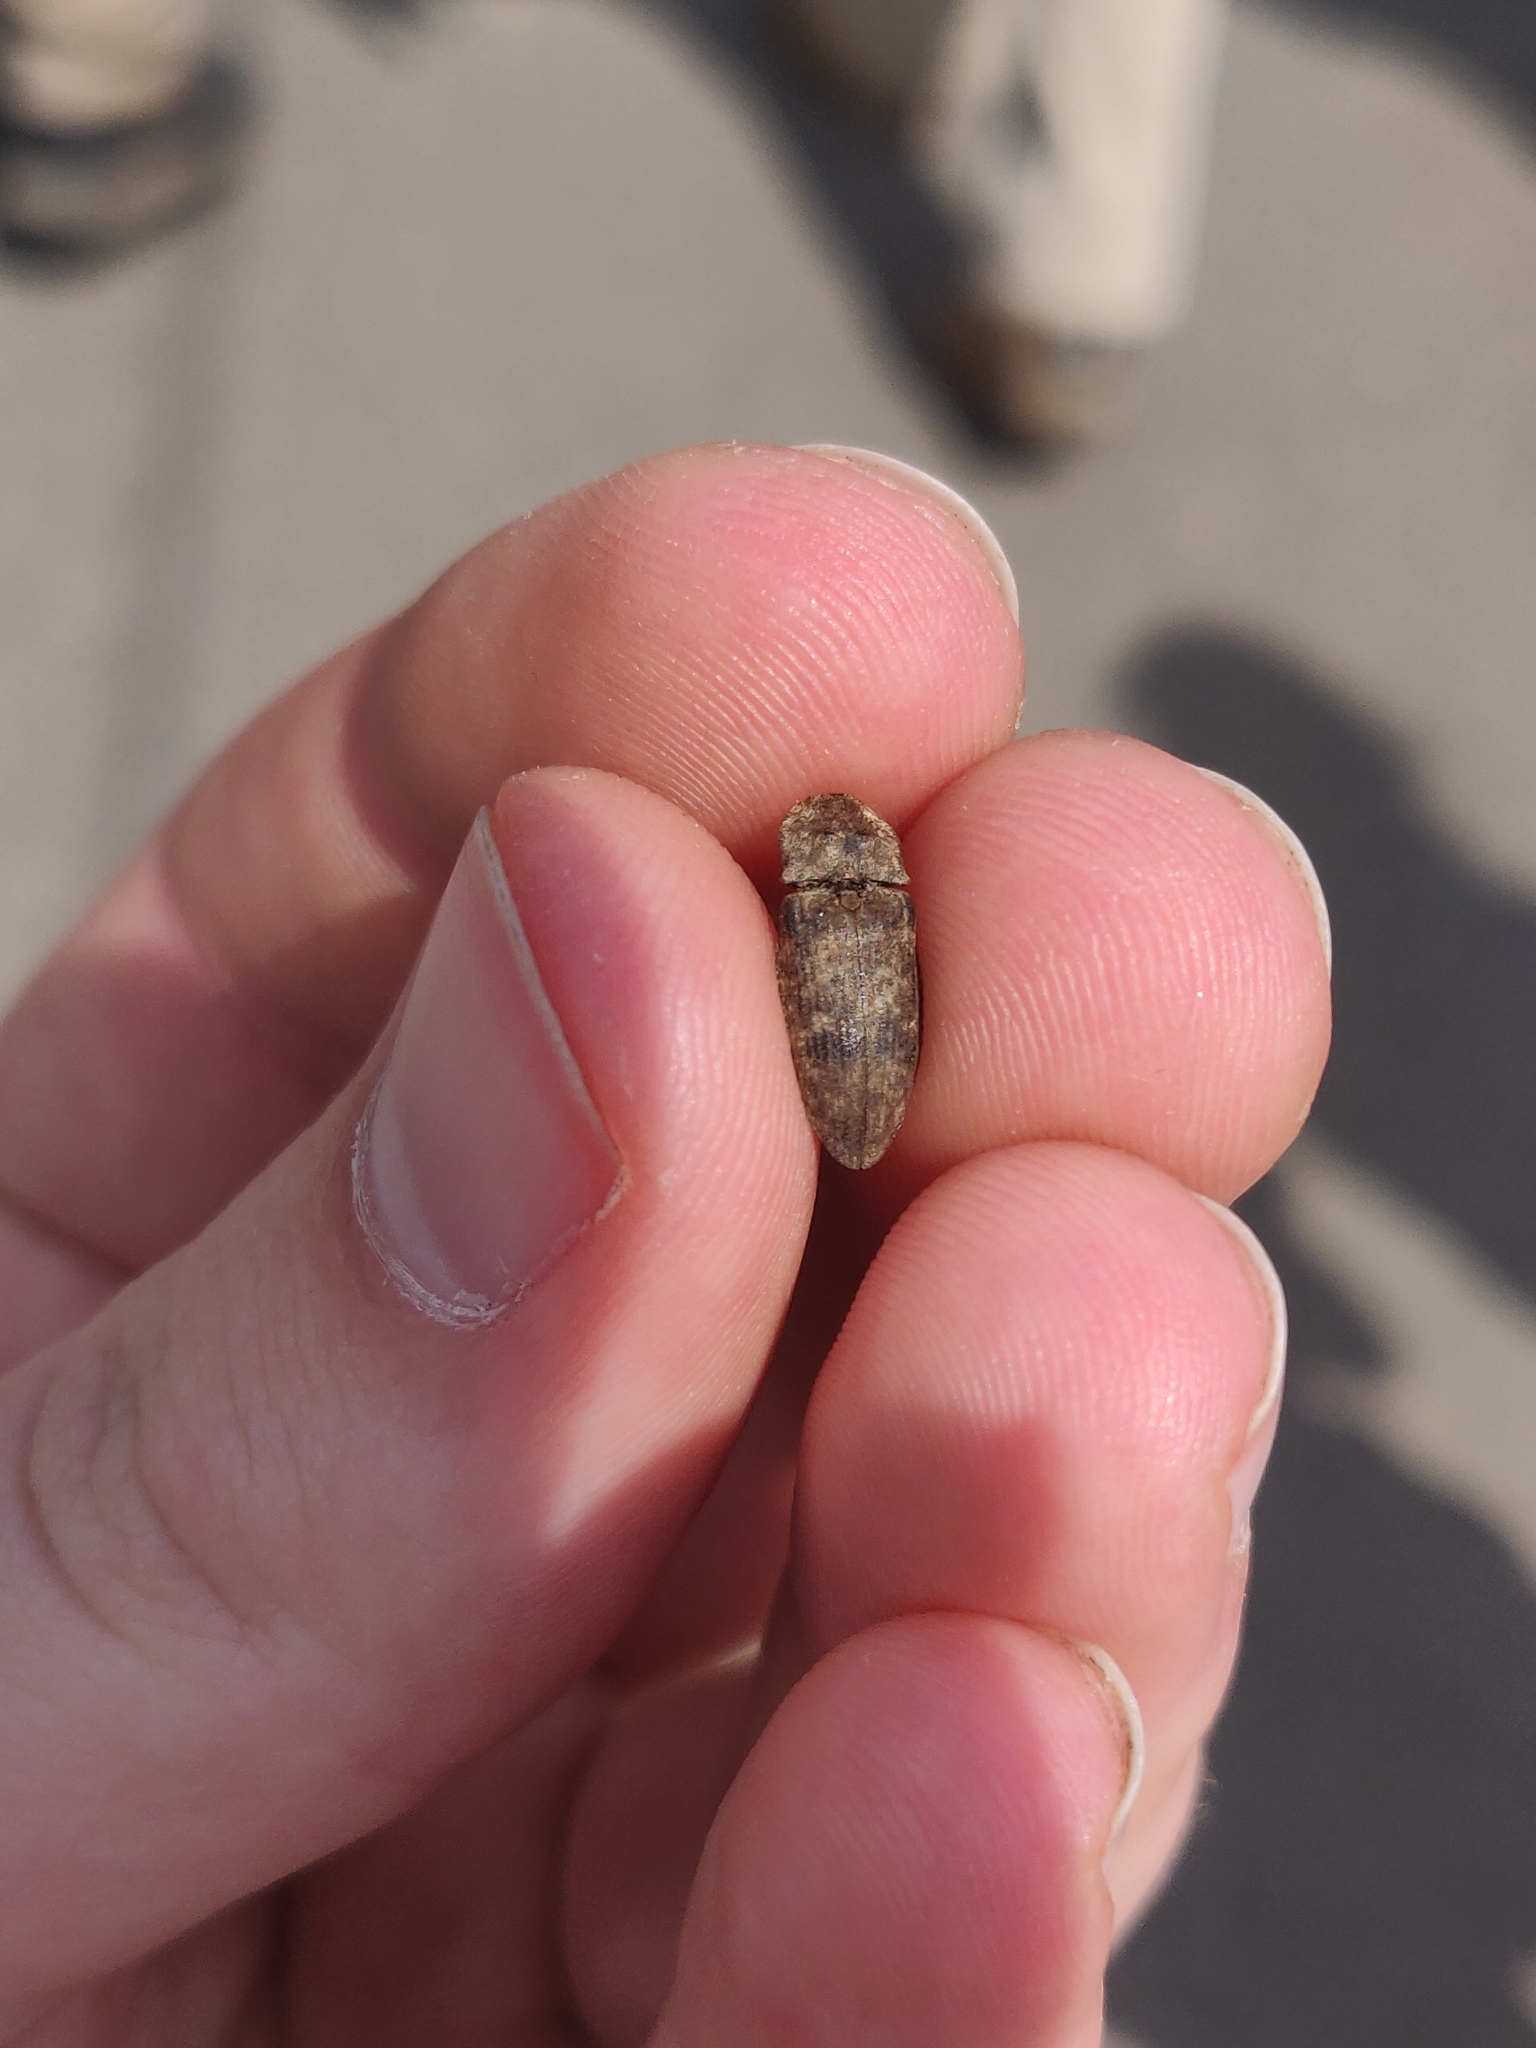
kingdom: Animalia
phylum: Arthropoda
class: Insecta
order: Coleoptera
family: Elateridae
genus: Agrypnus
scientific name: Agrypnus murinus
